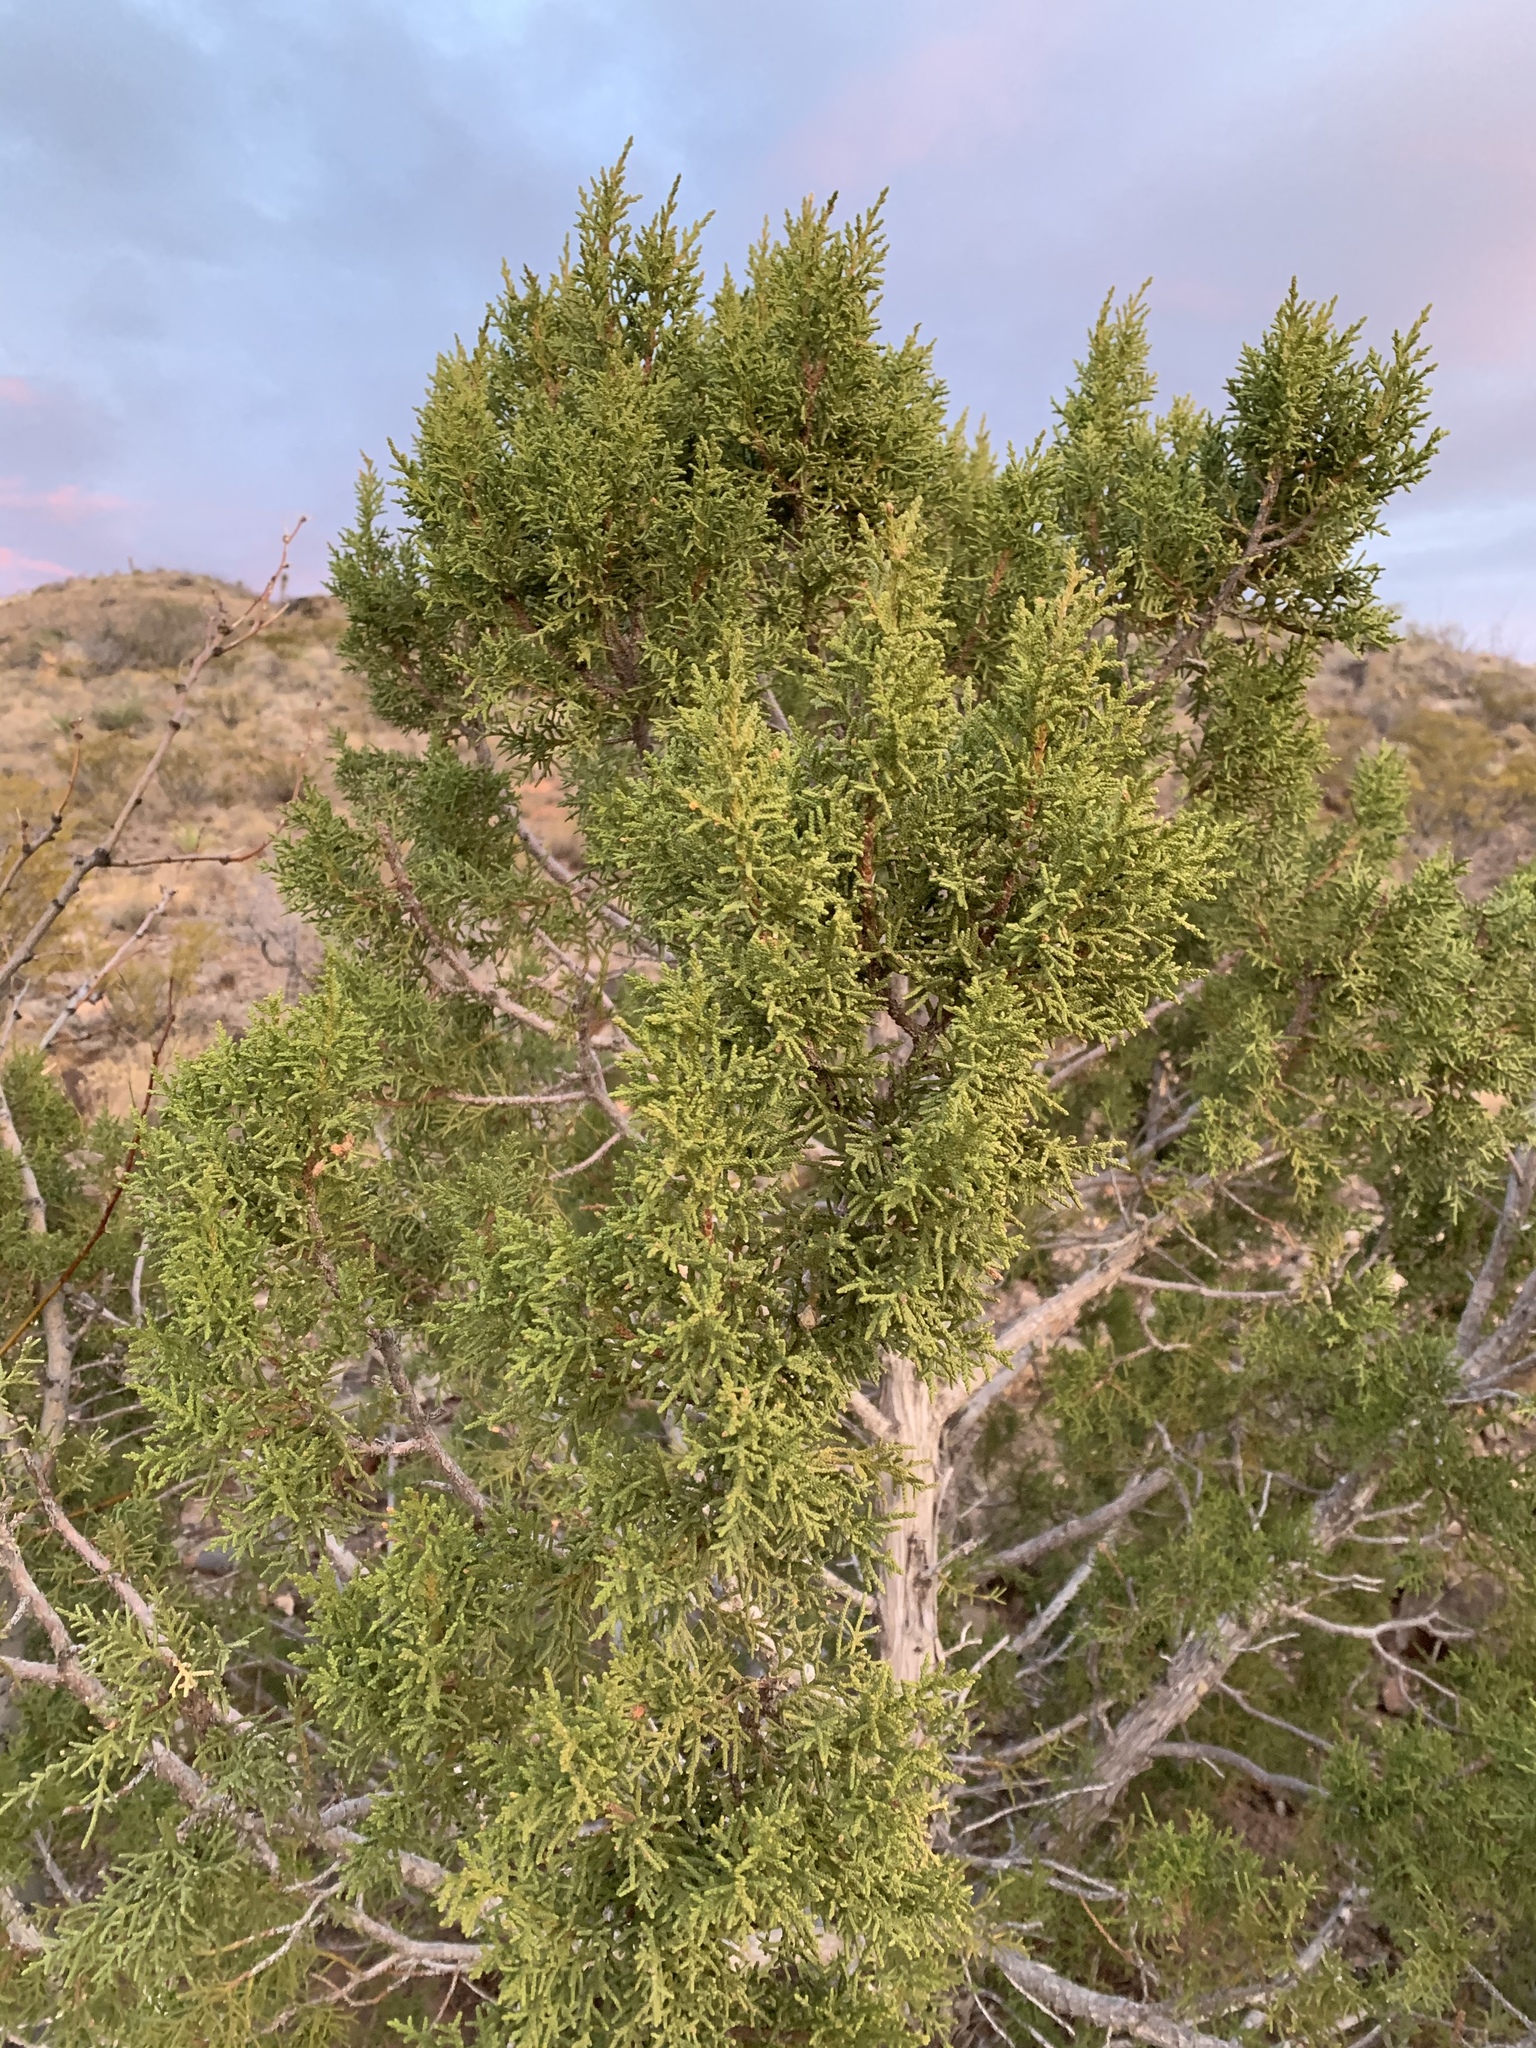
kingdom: Plantae
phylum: Tracheophyta
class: Pinopsida
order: Pinales
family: Cupressaceae
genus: Juniperus
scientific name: Juniperus monosperma
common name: One-seed juniper
